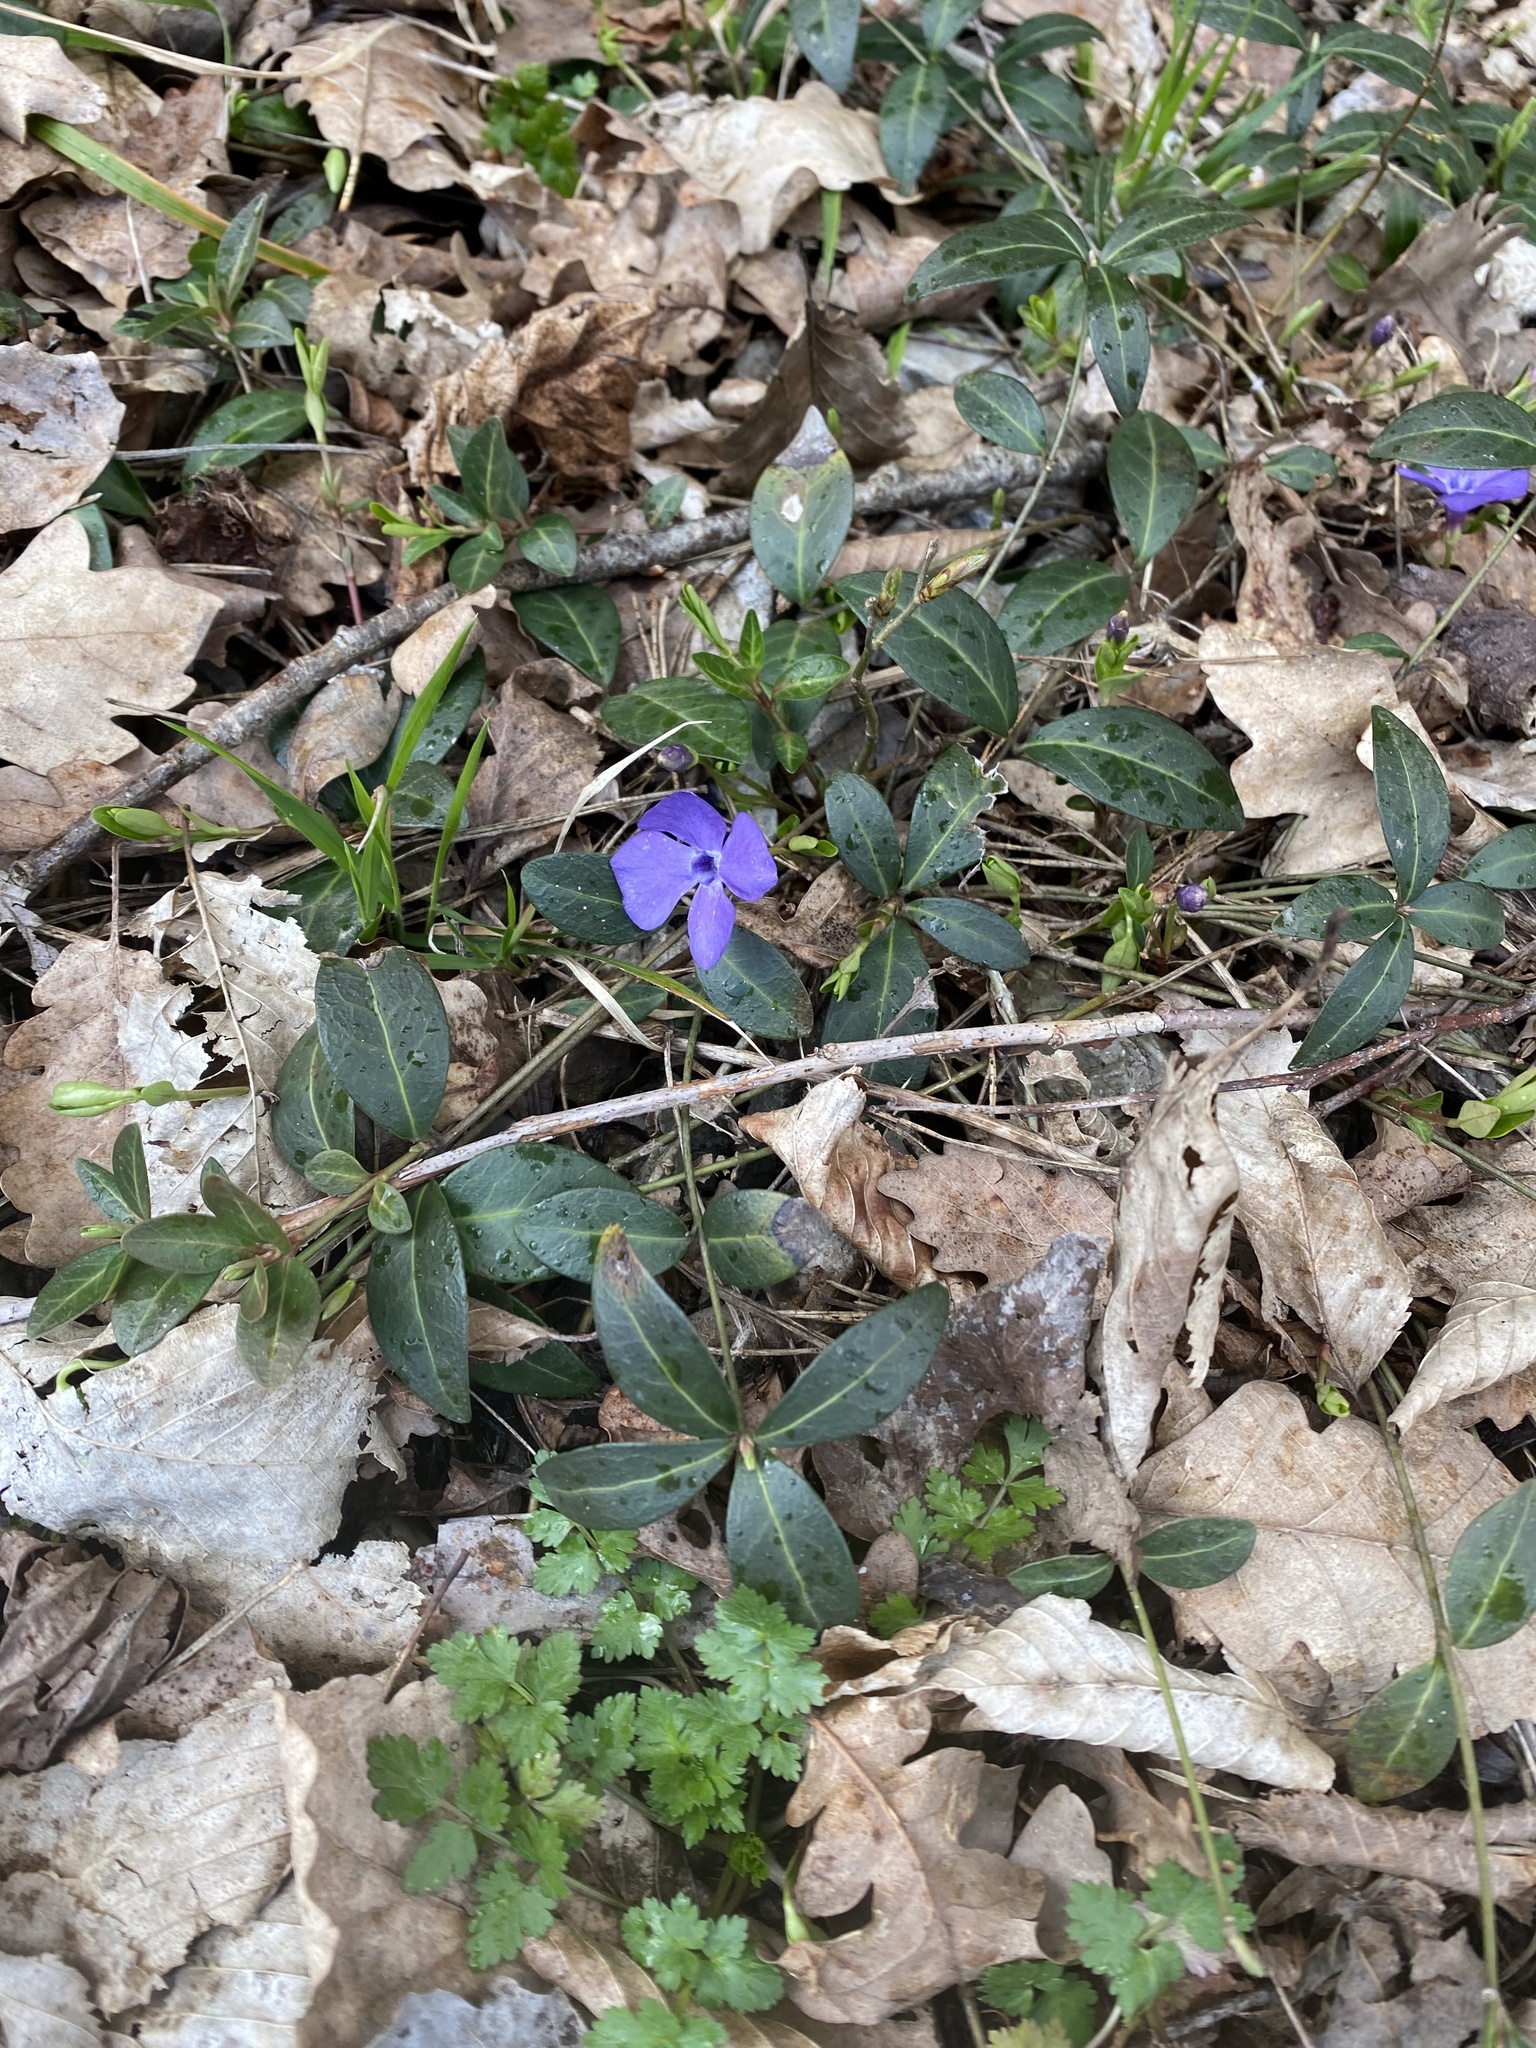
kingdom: Plantae
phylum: Tracheophyta
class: Magnoliopsida
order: Gentianales
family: Apocynaceae
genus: Vinca
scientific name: Vinca minor
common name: Lesser periwinkle
